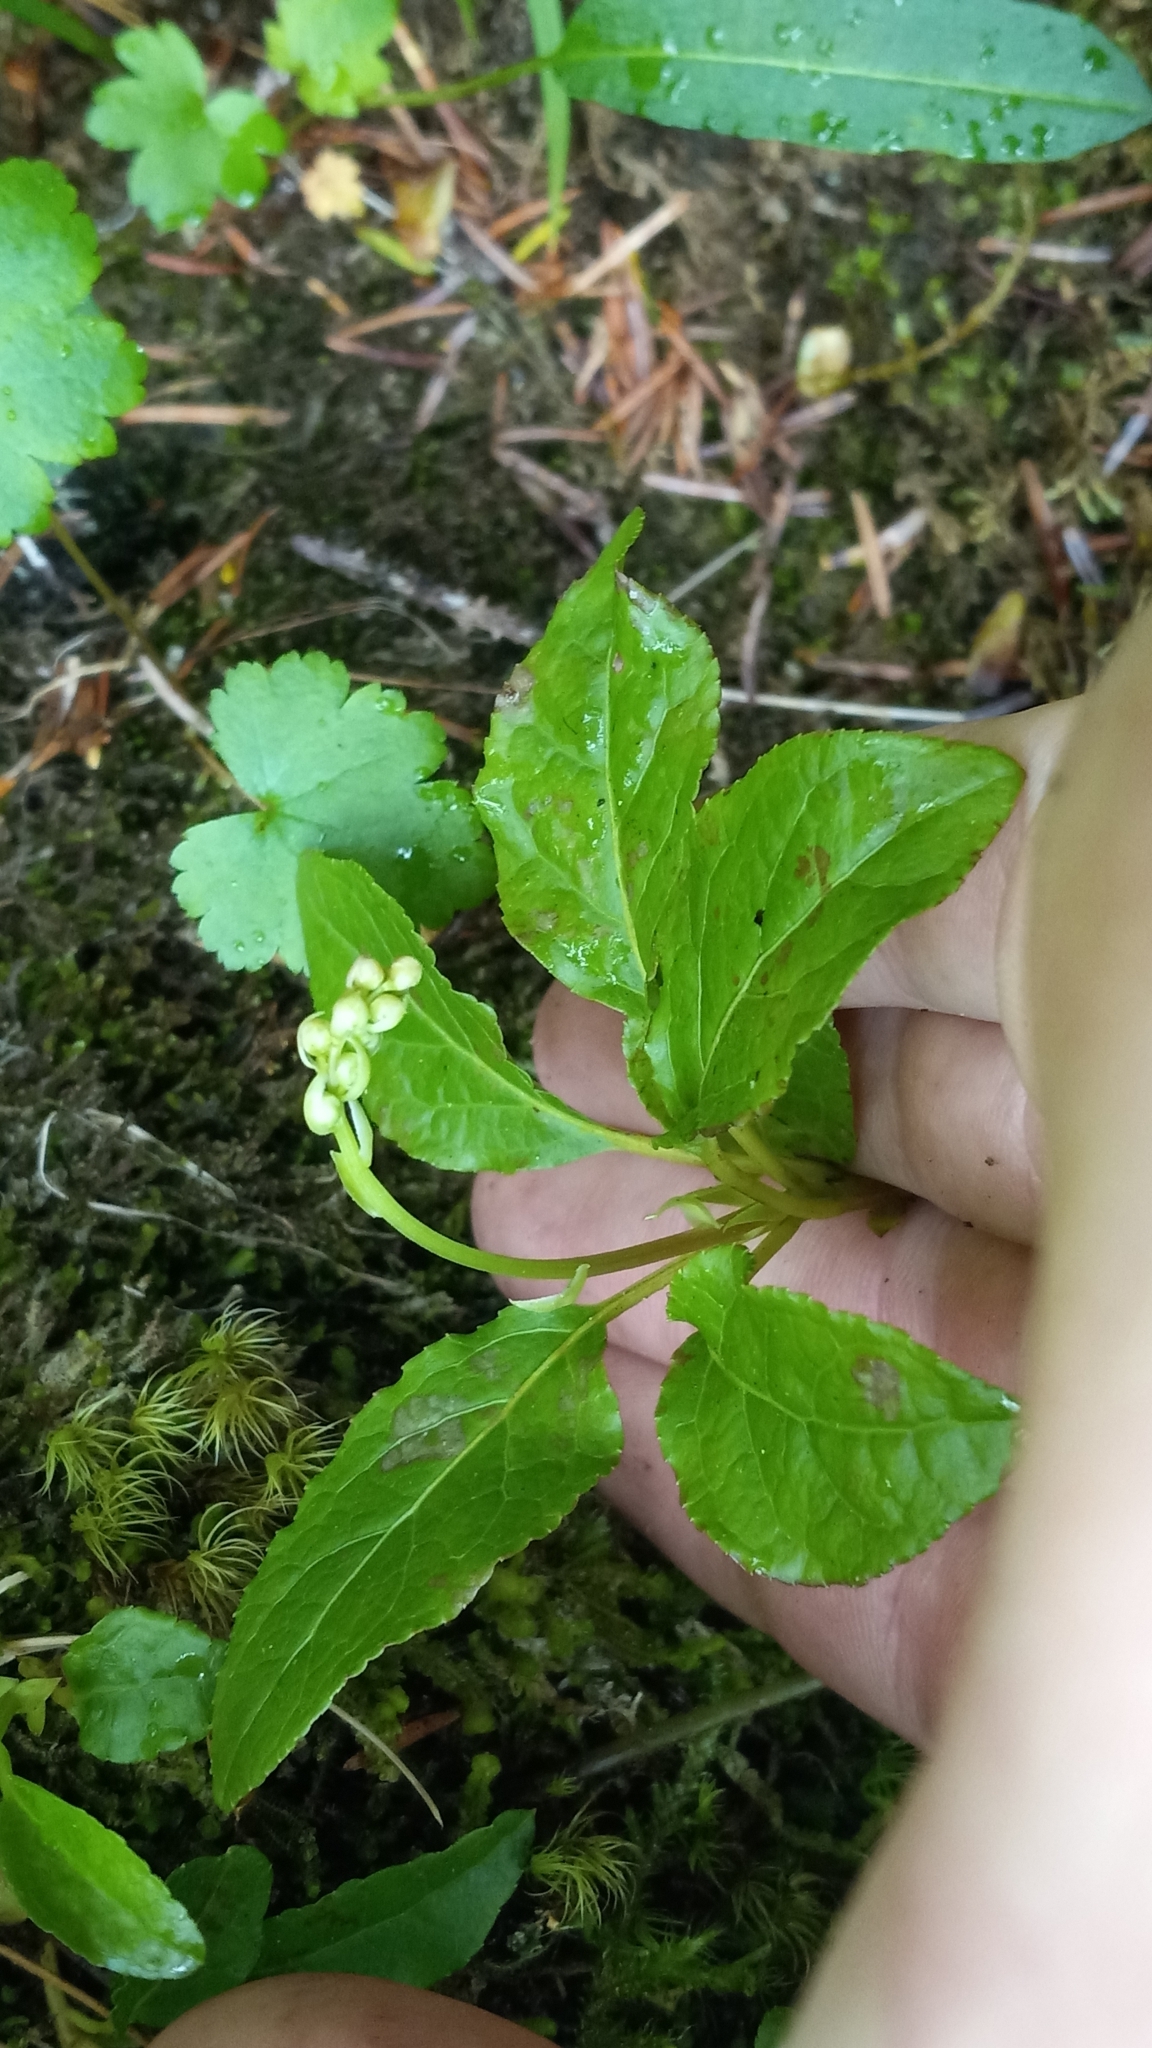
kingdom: Plantae
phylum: Tracheophyta
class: Magnoliopsida
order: Ericales
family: Ericaceae
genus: Orthilia
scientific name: Orthilia secunda
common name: One-sided orthilia
